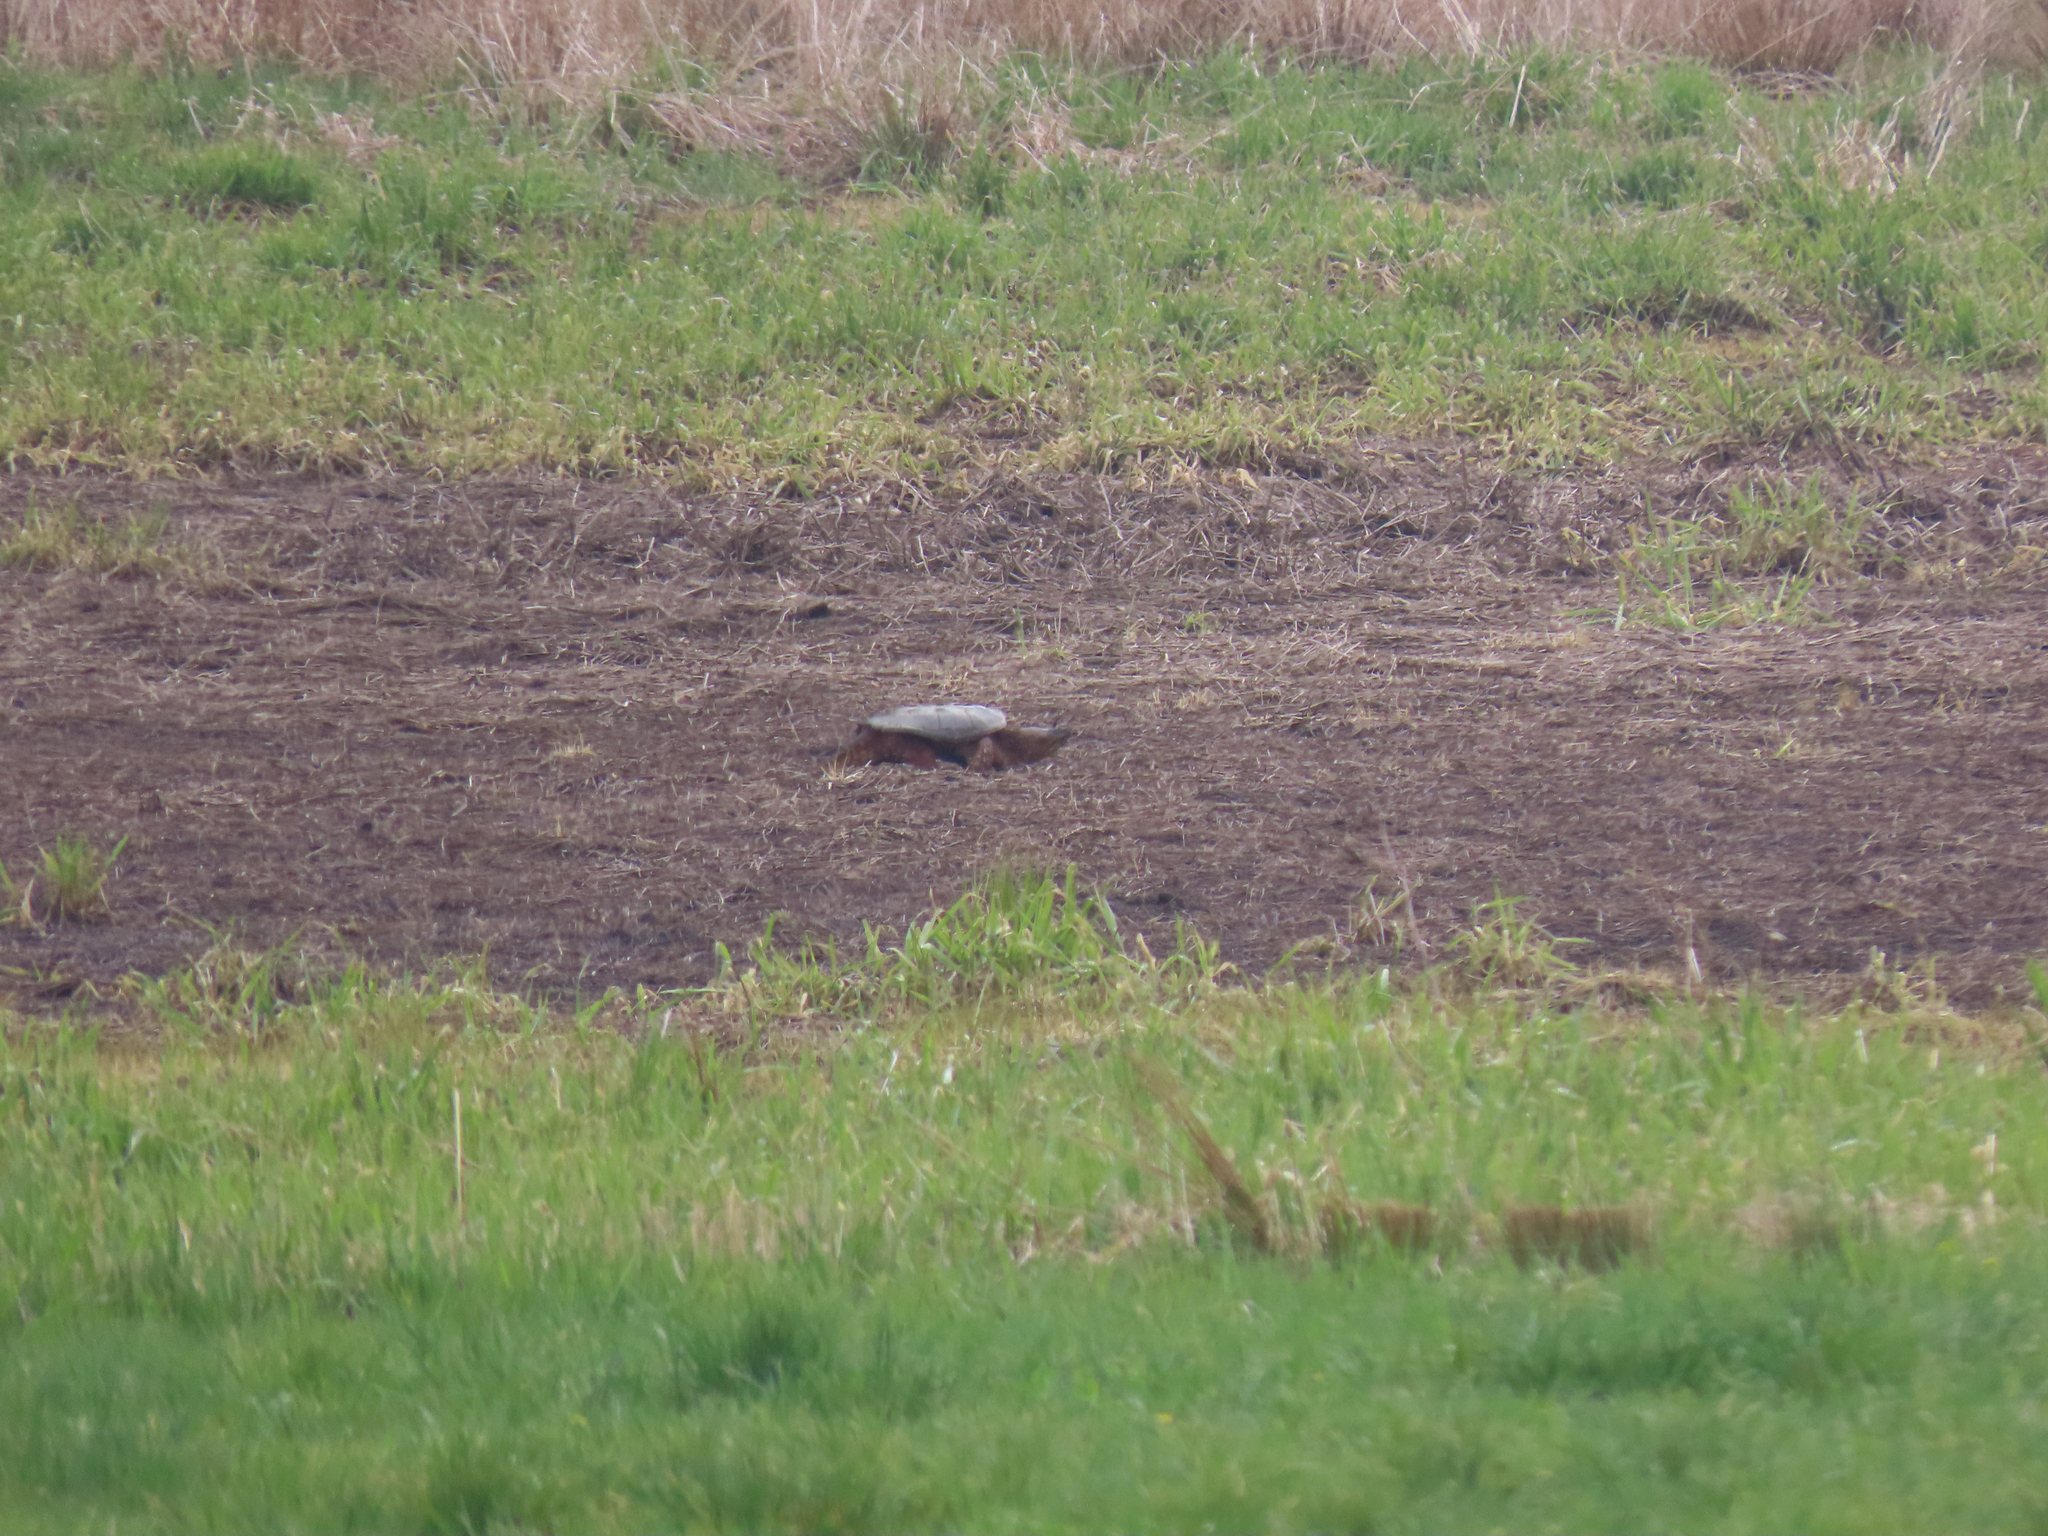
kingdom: Animalia
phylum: Chordata
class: Testudines
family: Chelydridae
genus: Chelydra
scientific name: Chelydra serpentina
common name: Common snapping turtle
